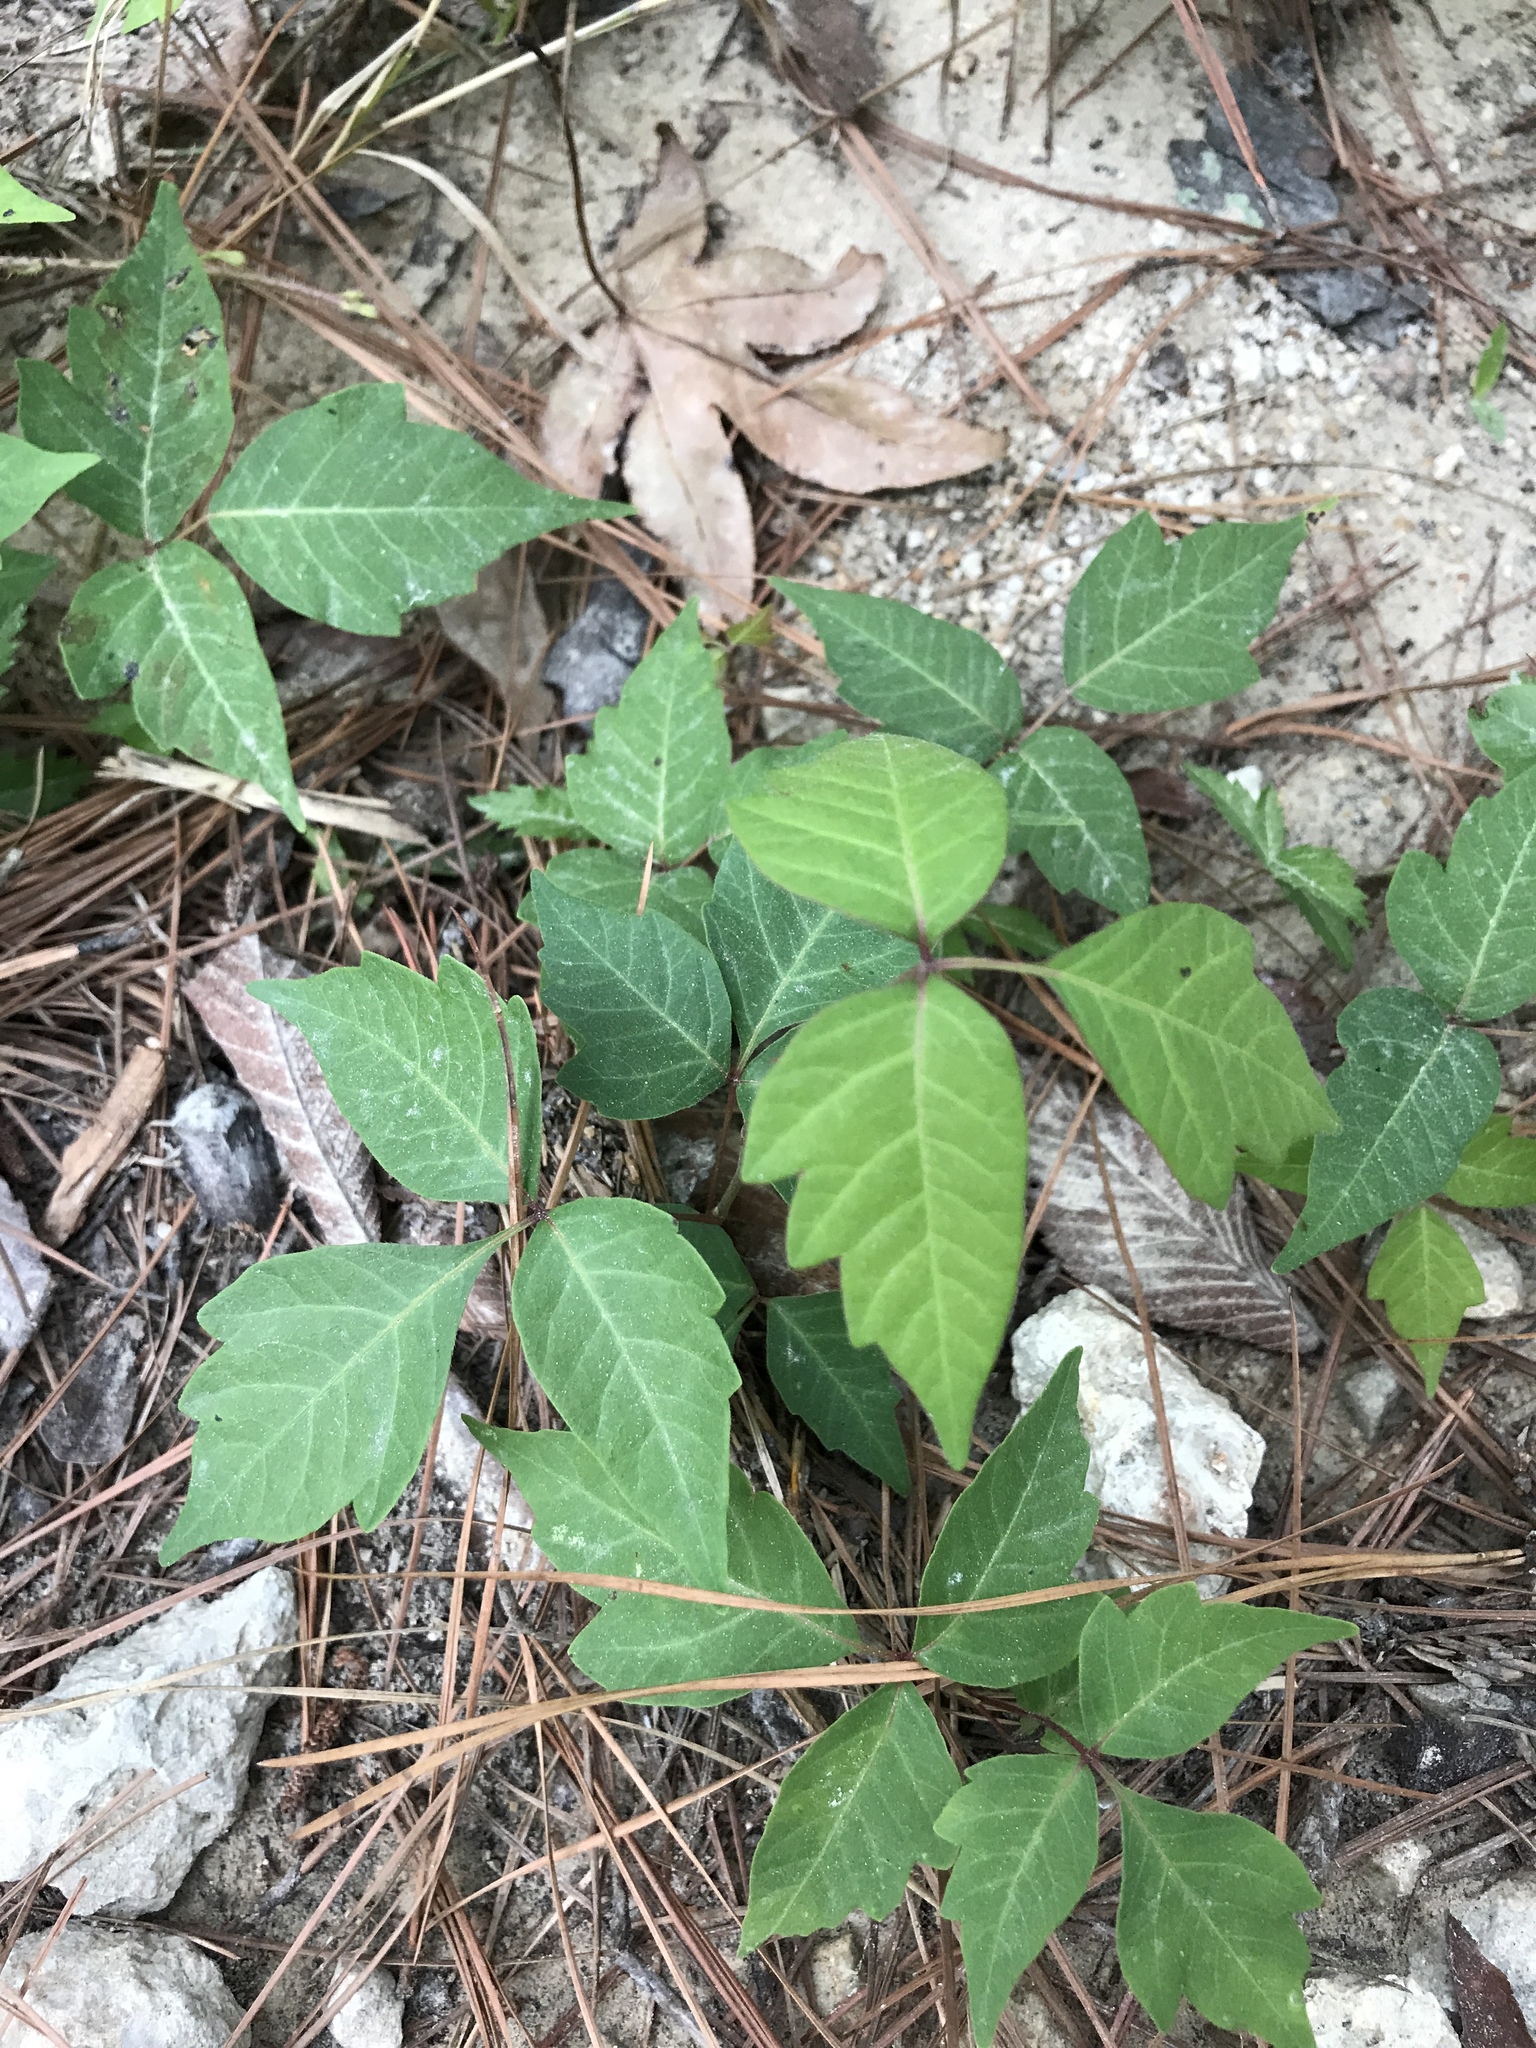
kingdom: Plantae
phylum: Tracheophyta
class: Magnoliopsida
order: Sapindales
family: Anacardiaceae
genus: Toxicodendron
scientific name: Toxicodendron radicans
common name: Poison ivy
